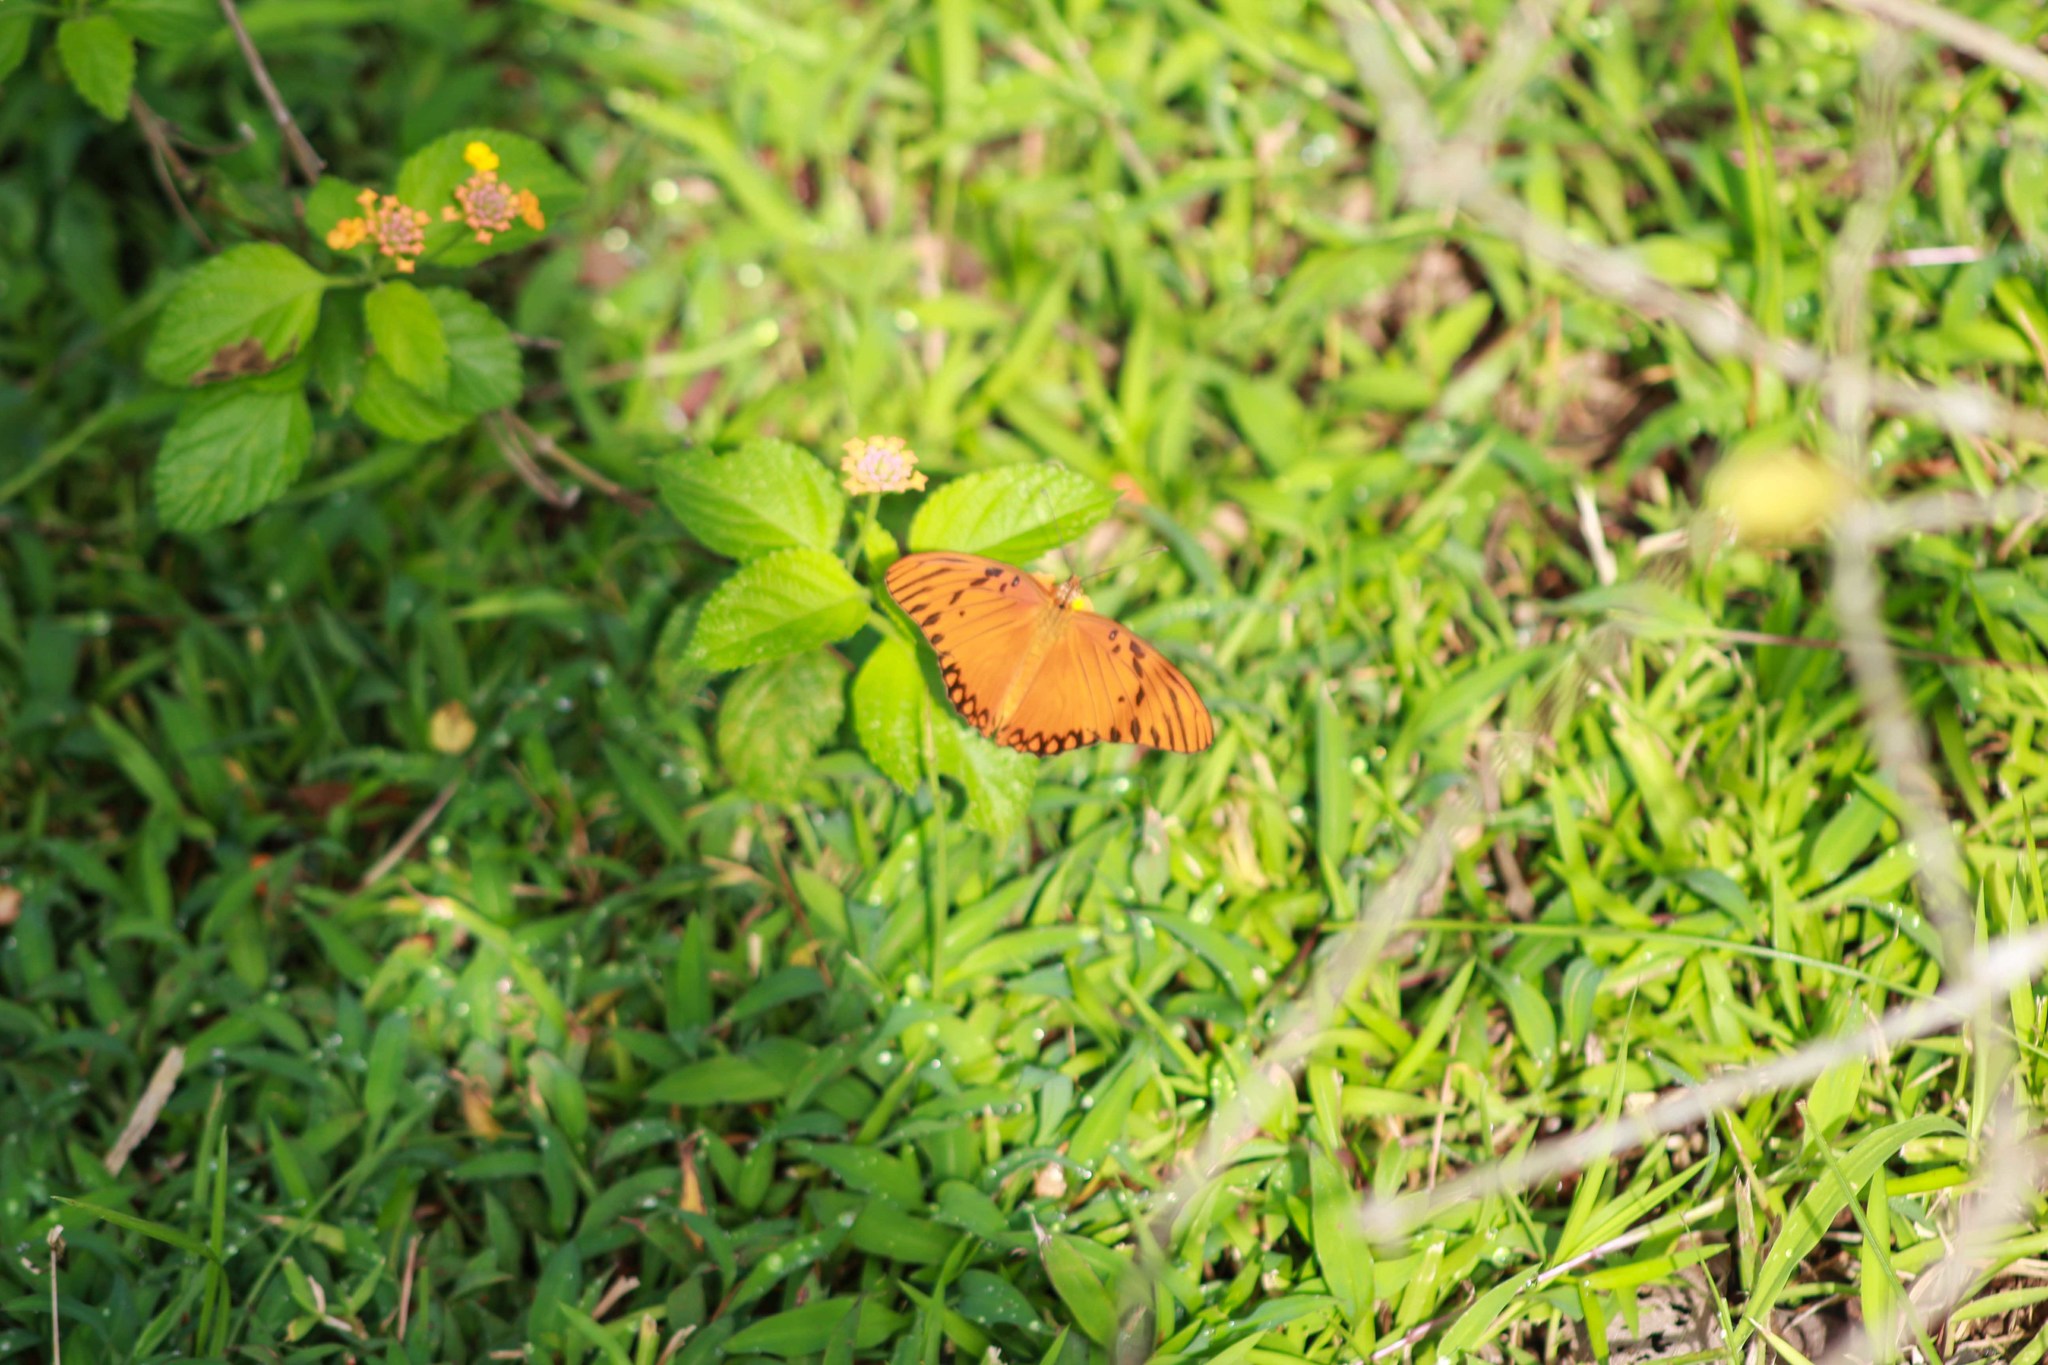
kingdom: Animalia
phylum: Arthropoda
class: Insecta
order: Lepidoptera
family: Nymphalidae
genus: Dione
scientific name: Dione vanillae
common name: Gulf fritillary
